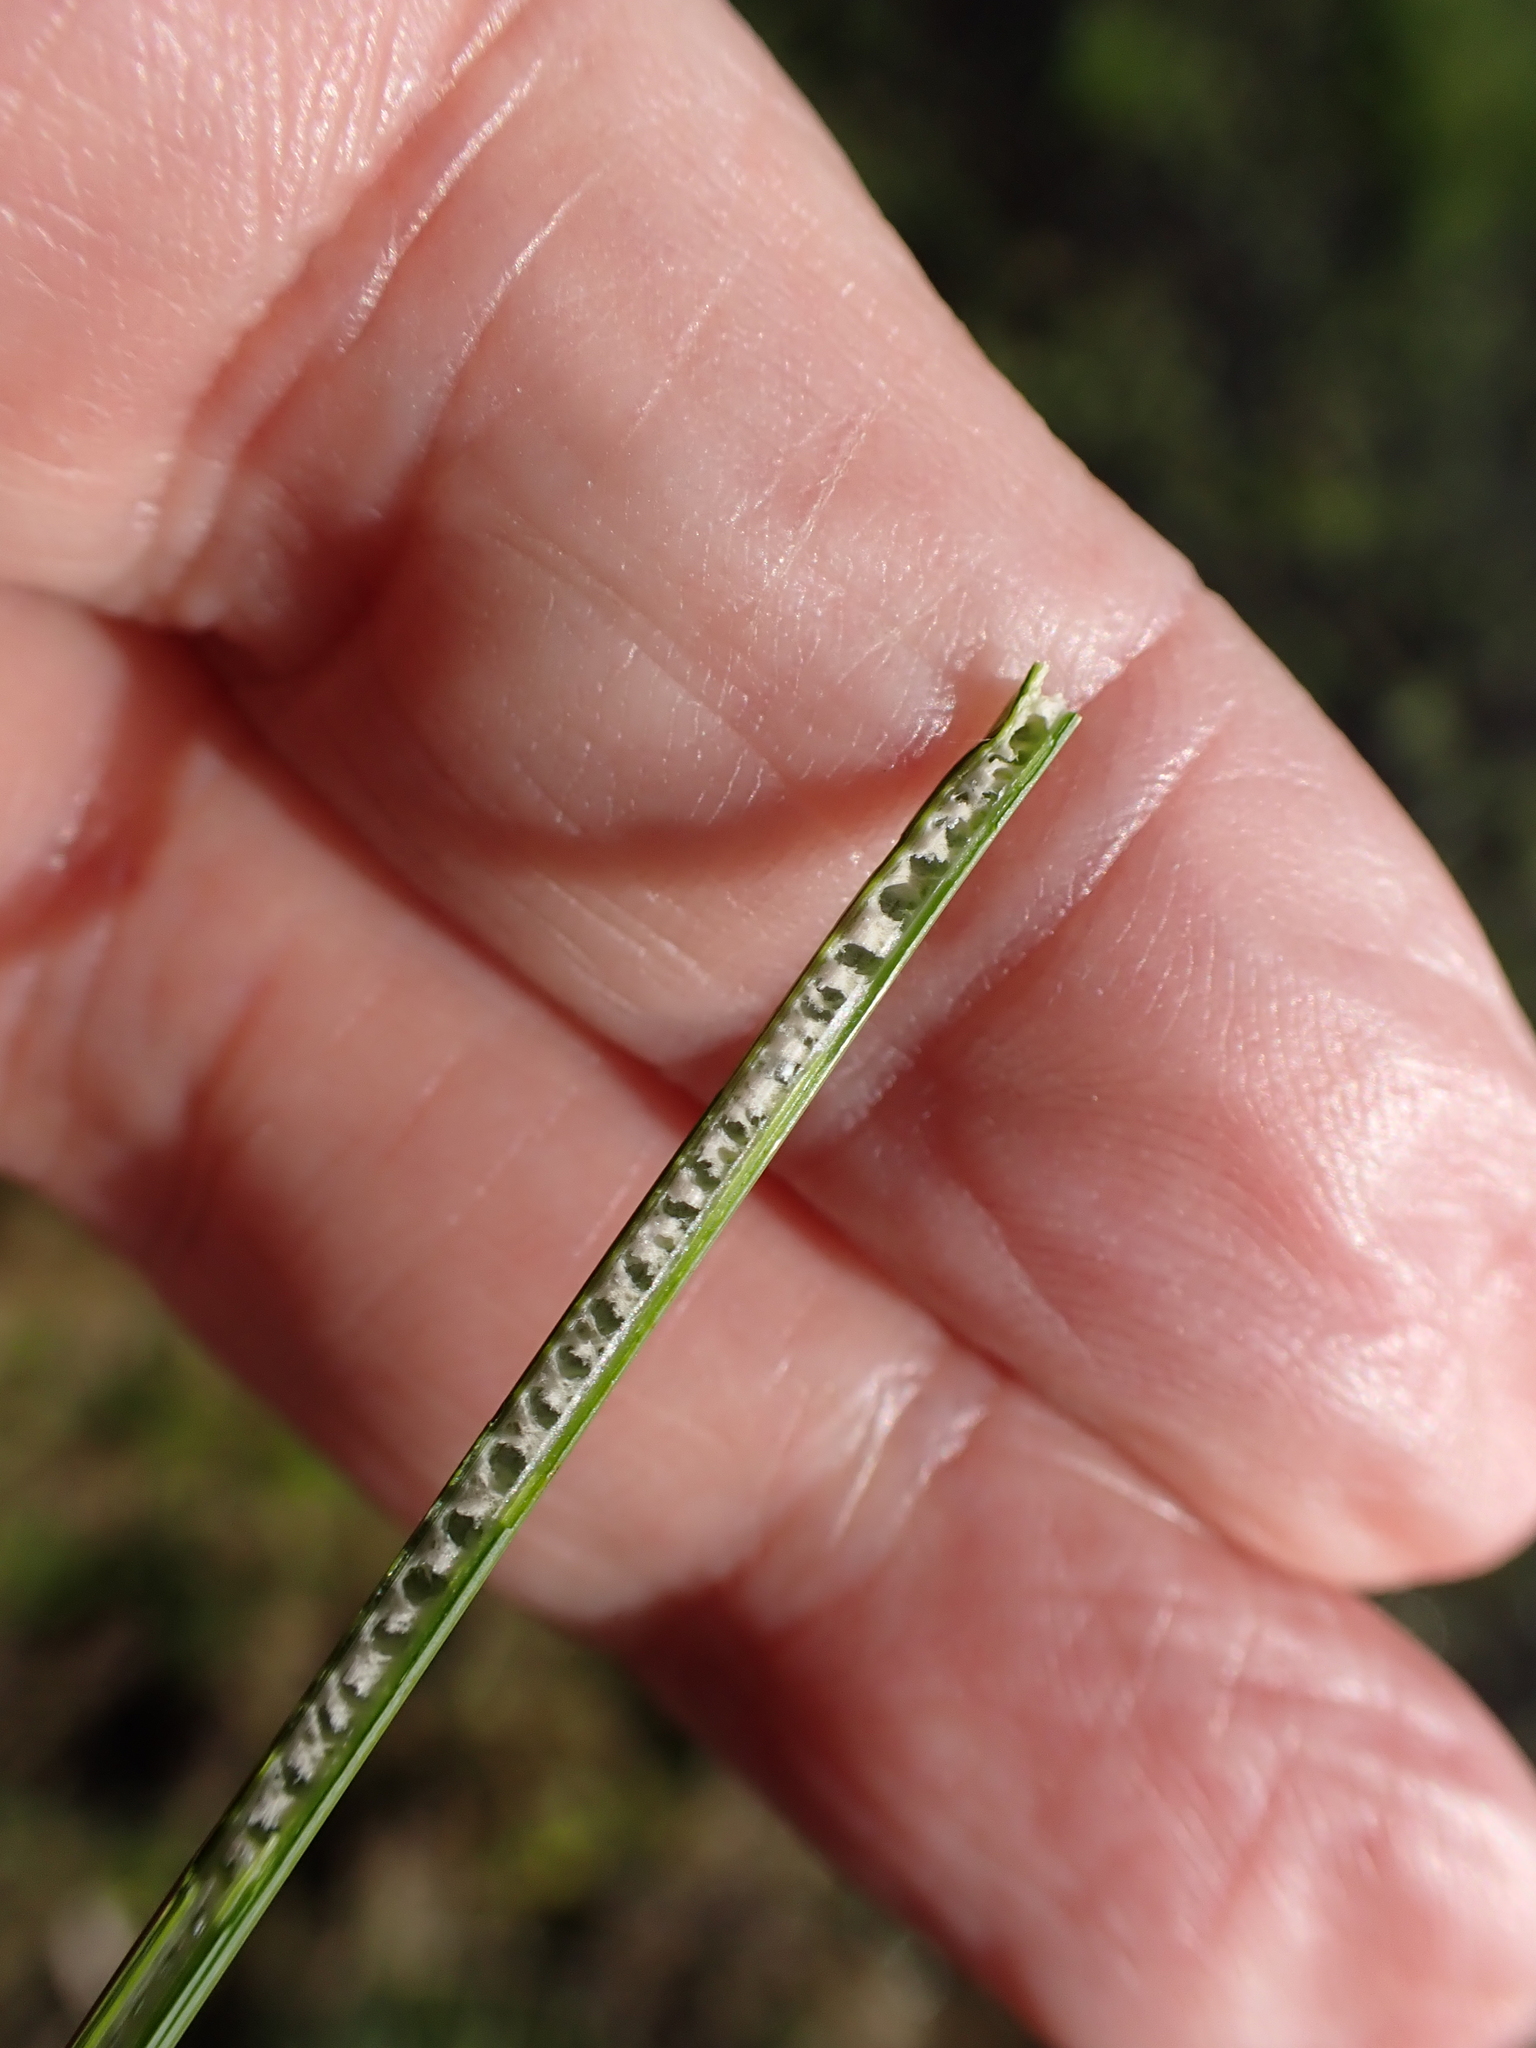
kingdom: Plantae
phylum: Tracheophyta
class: Liliopsida
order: Poales
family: Juncaceae
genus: Juncus
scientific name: Juncus inflexus
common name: Hard rush
